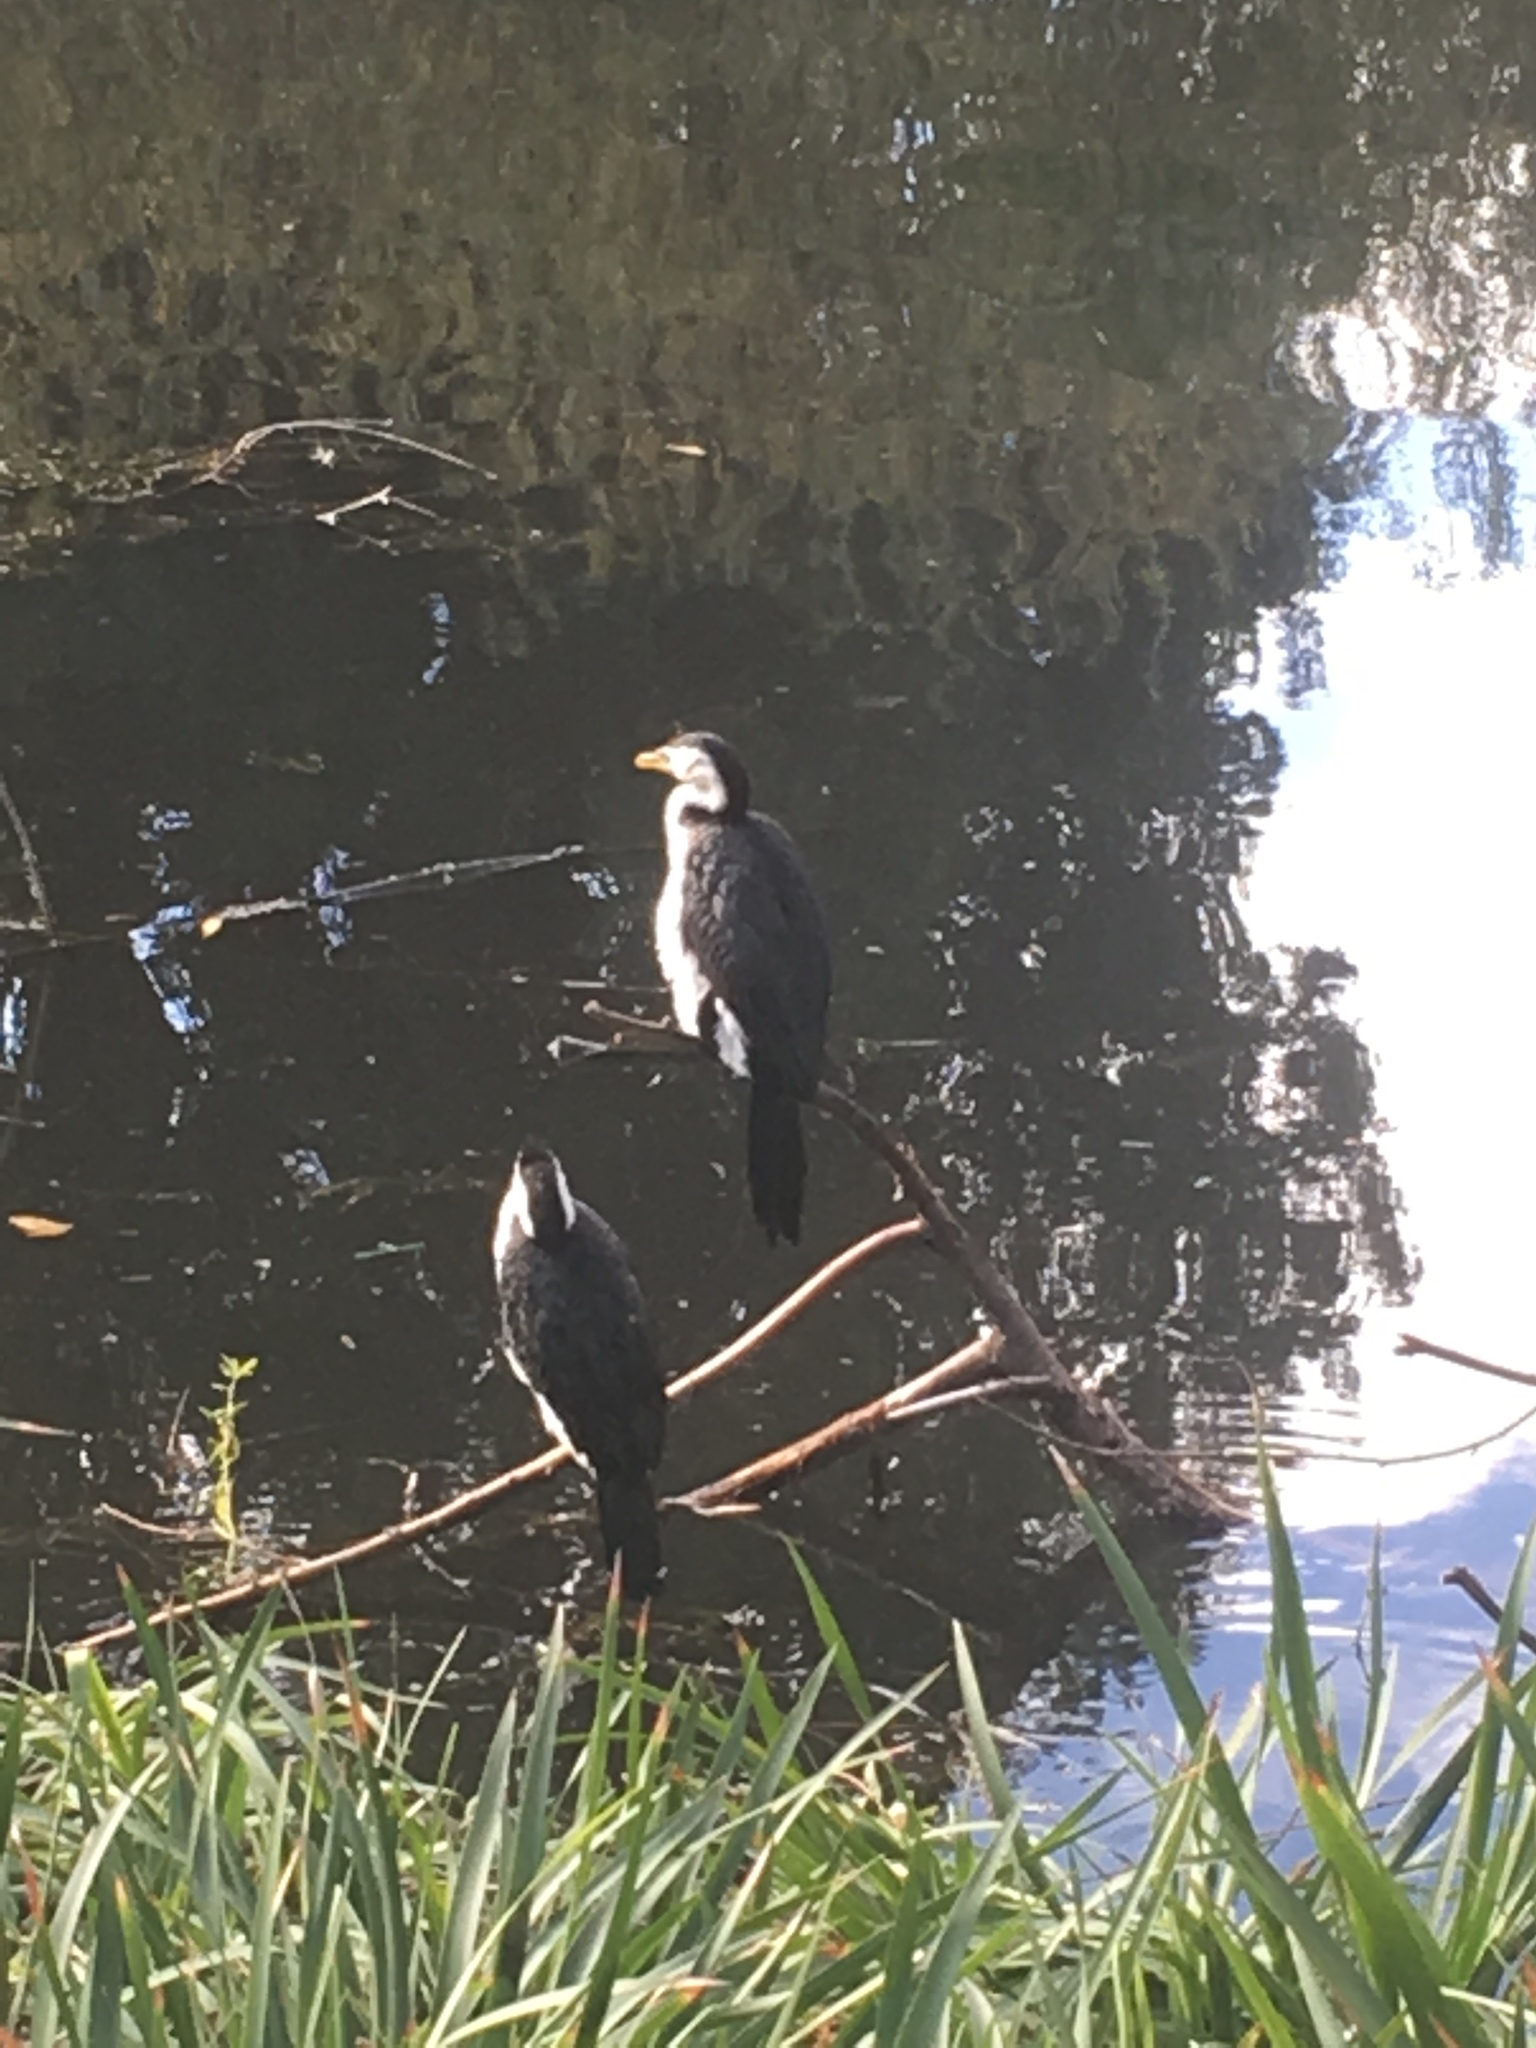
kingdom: Animalia
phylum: Chordata
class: Aves
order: Suliformes
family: Phalacrocoracidae
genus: Microcarbo
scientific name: Microcarbo melanoleucos
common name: Little pied cormorant
